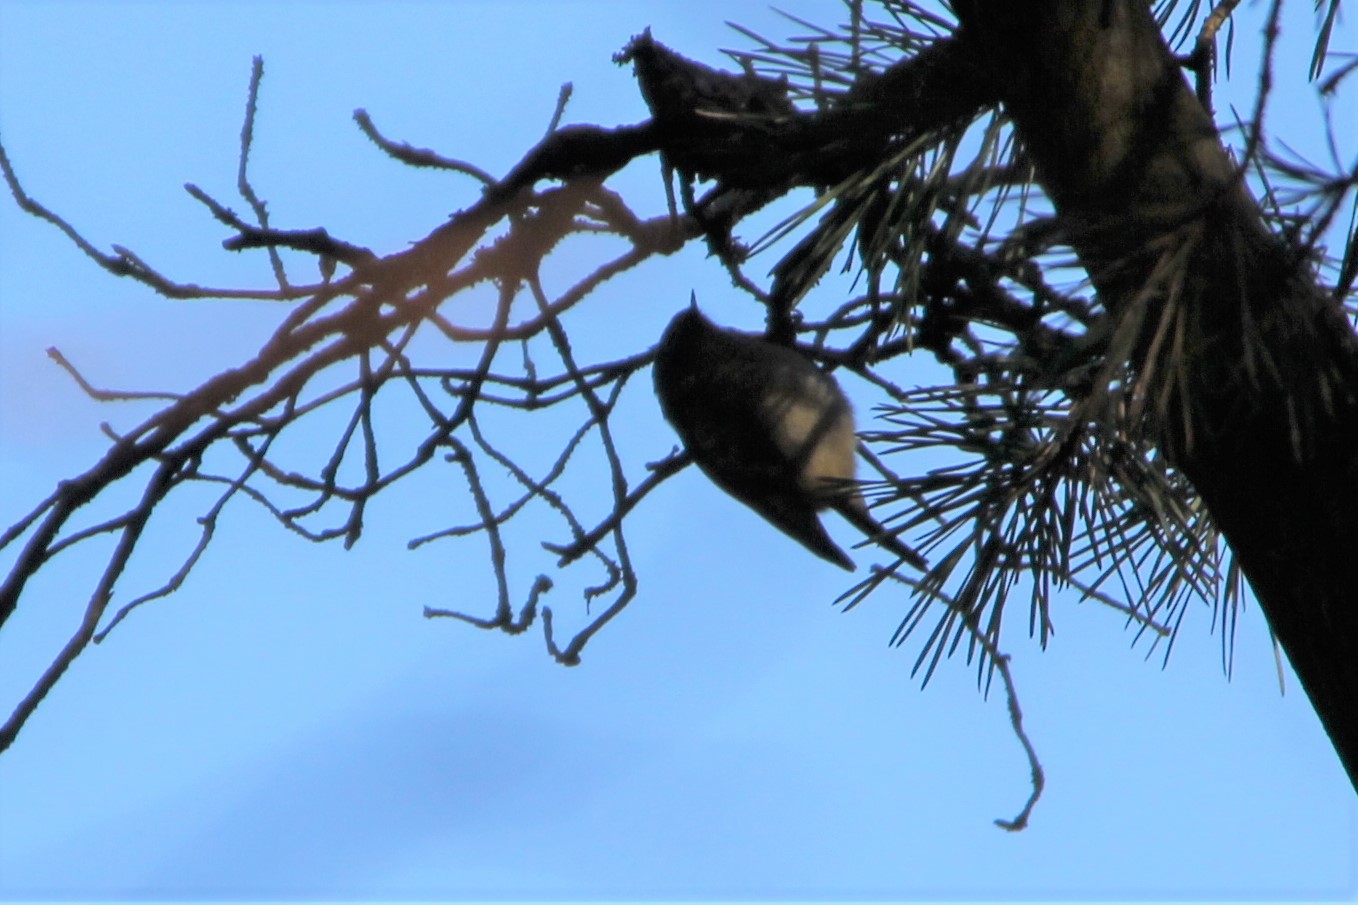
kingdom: Animalia
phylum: Chordata
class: Aves
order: Passeriformes
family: Regulidae
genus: Regulus
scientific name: Regulus regulus
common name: Goldcrest
